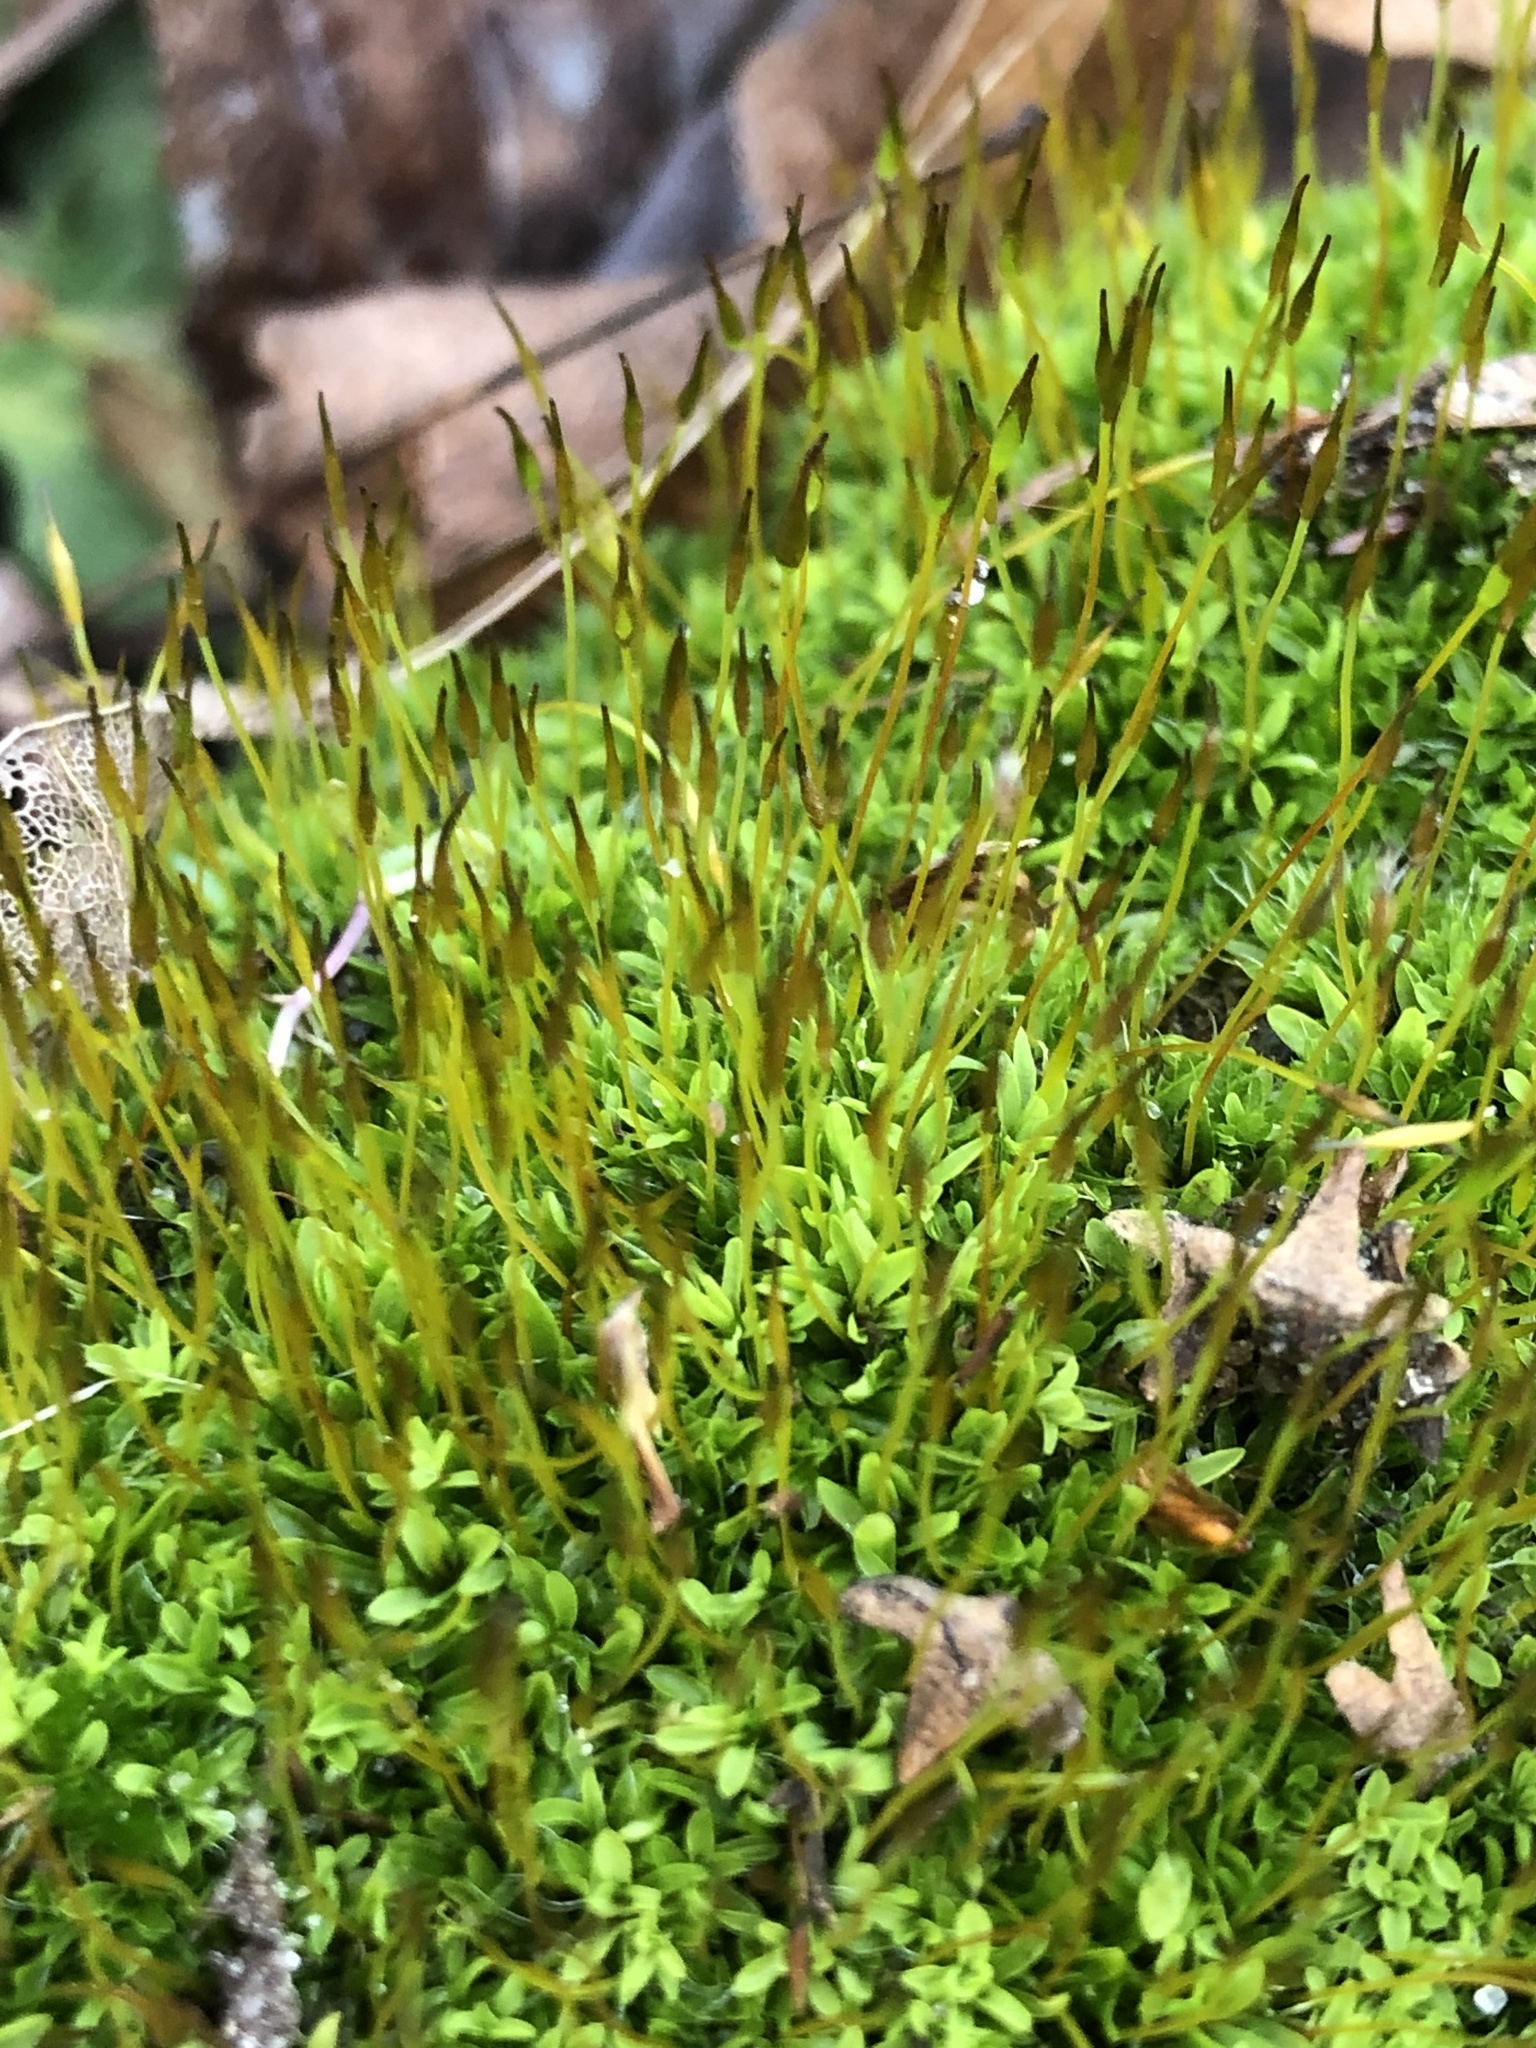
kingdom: Plantae
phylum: Bryophyta
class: Bryopsida
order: Pottiales
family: Pottiaceae
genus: Tortula
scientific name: Tortula muralis
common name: Wall screw-moss
